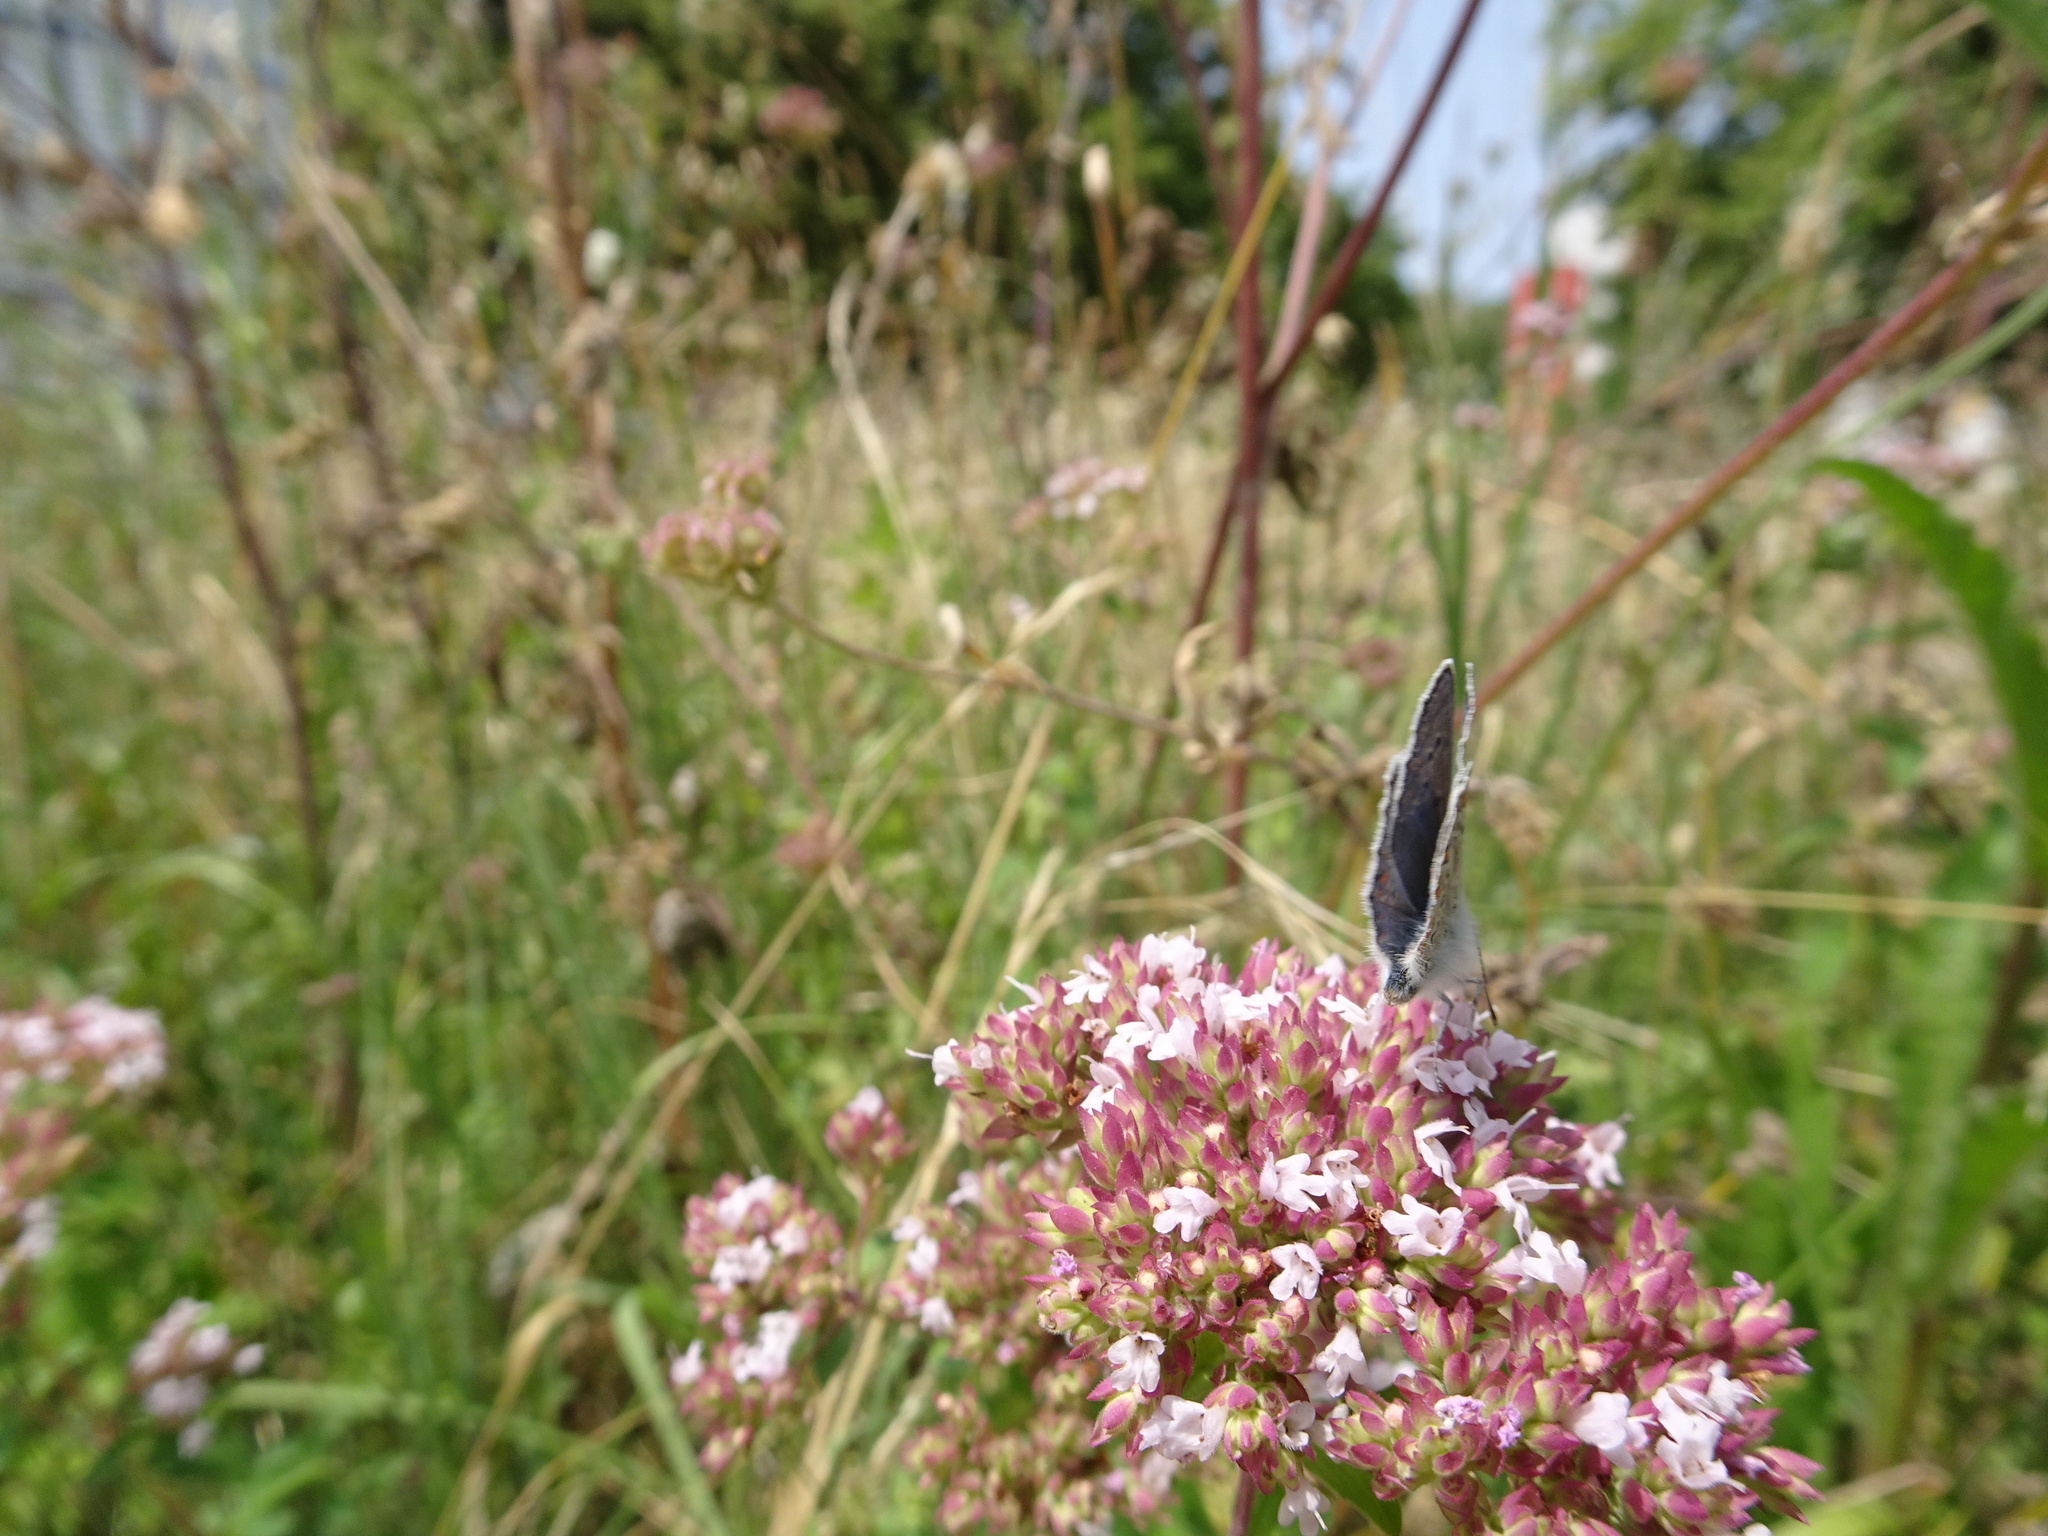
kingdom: Animalia
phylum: Arthropoda
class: Insecta
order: Lepidoptera
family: Lycaenidae
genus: Polyommatus
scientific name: Polyommatus icarus
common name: Common blue
